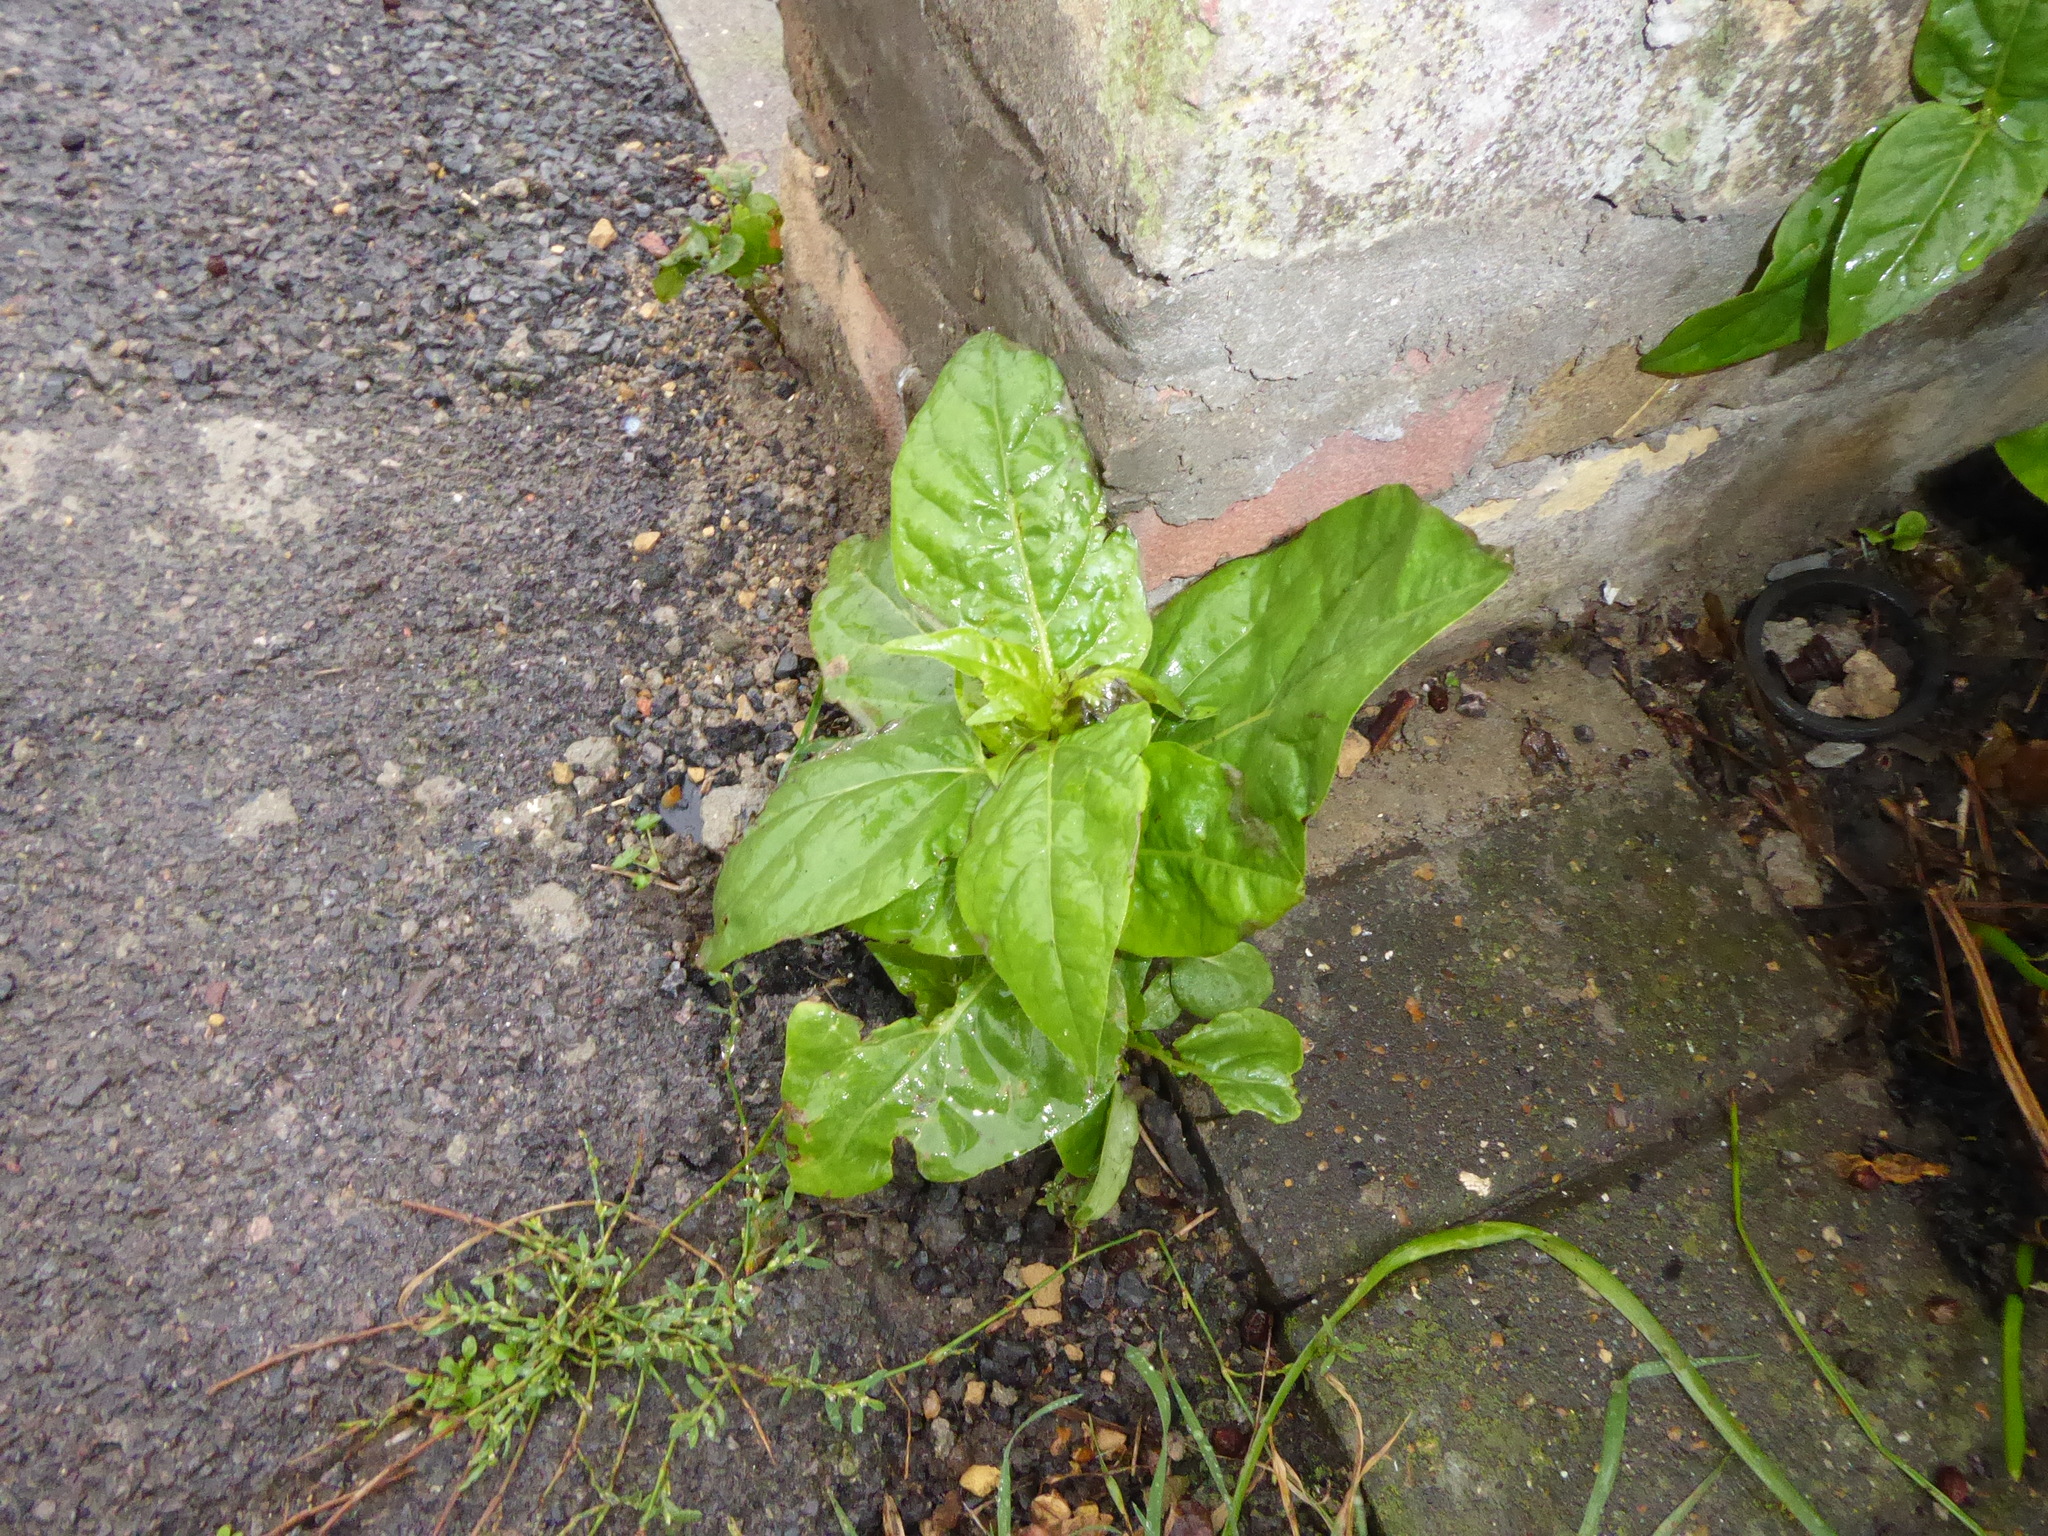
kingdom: Plantae
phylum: Tracheophyta
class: Magnoliopsida
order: Caryophyllales
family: Nyctaginaceae
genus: Mirabilis
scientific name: Mirabilis jalapa
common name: Marvel-of-peru
